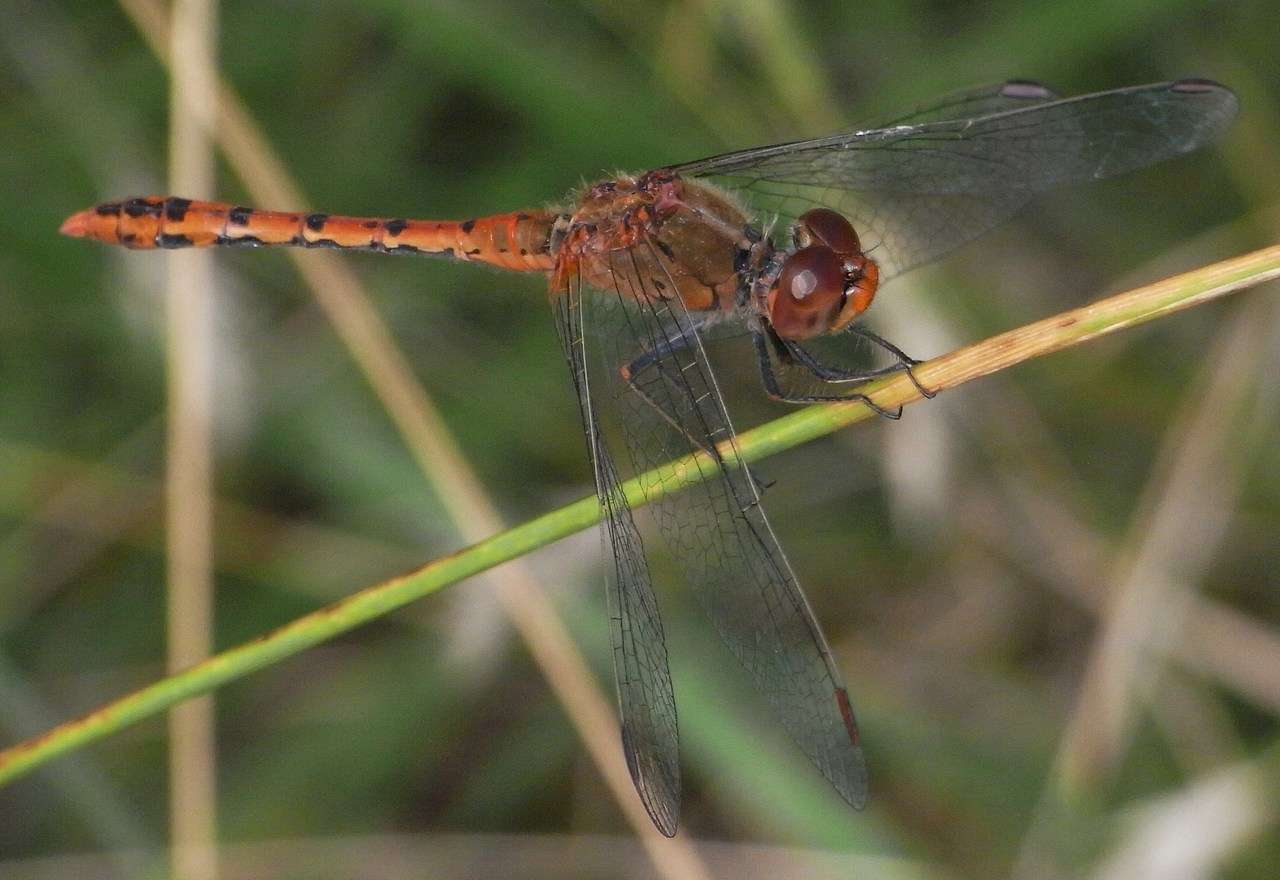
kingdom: Animalia
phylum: Arthropoda
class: Insecta
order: Odonata
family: Libellulidae
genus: Diplacodes
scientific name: Diplacodes bipunctata
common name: Red percher dragonfly
